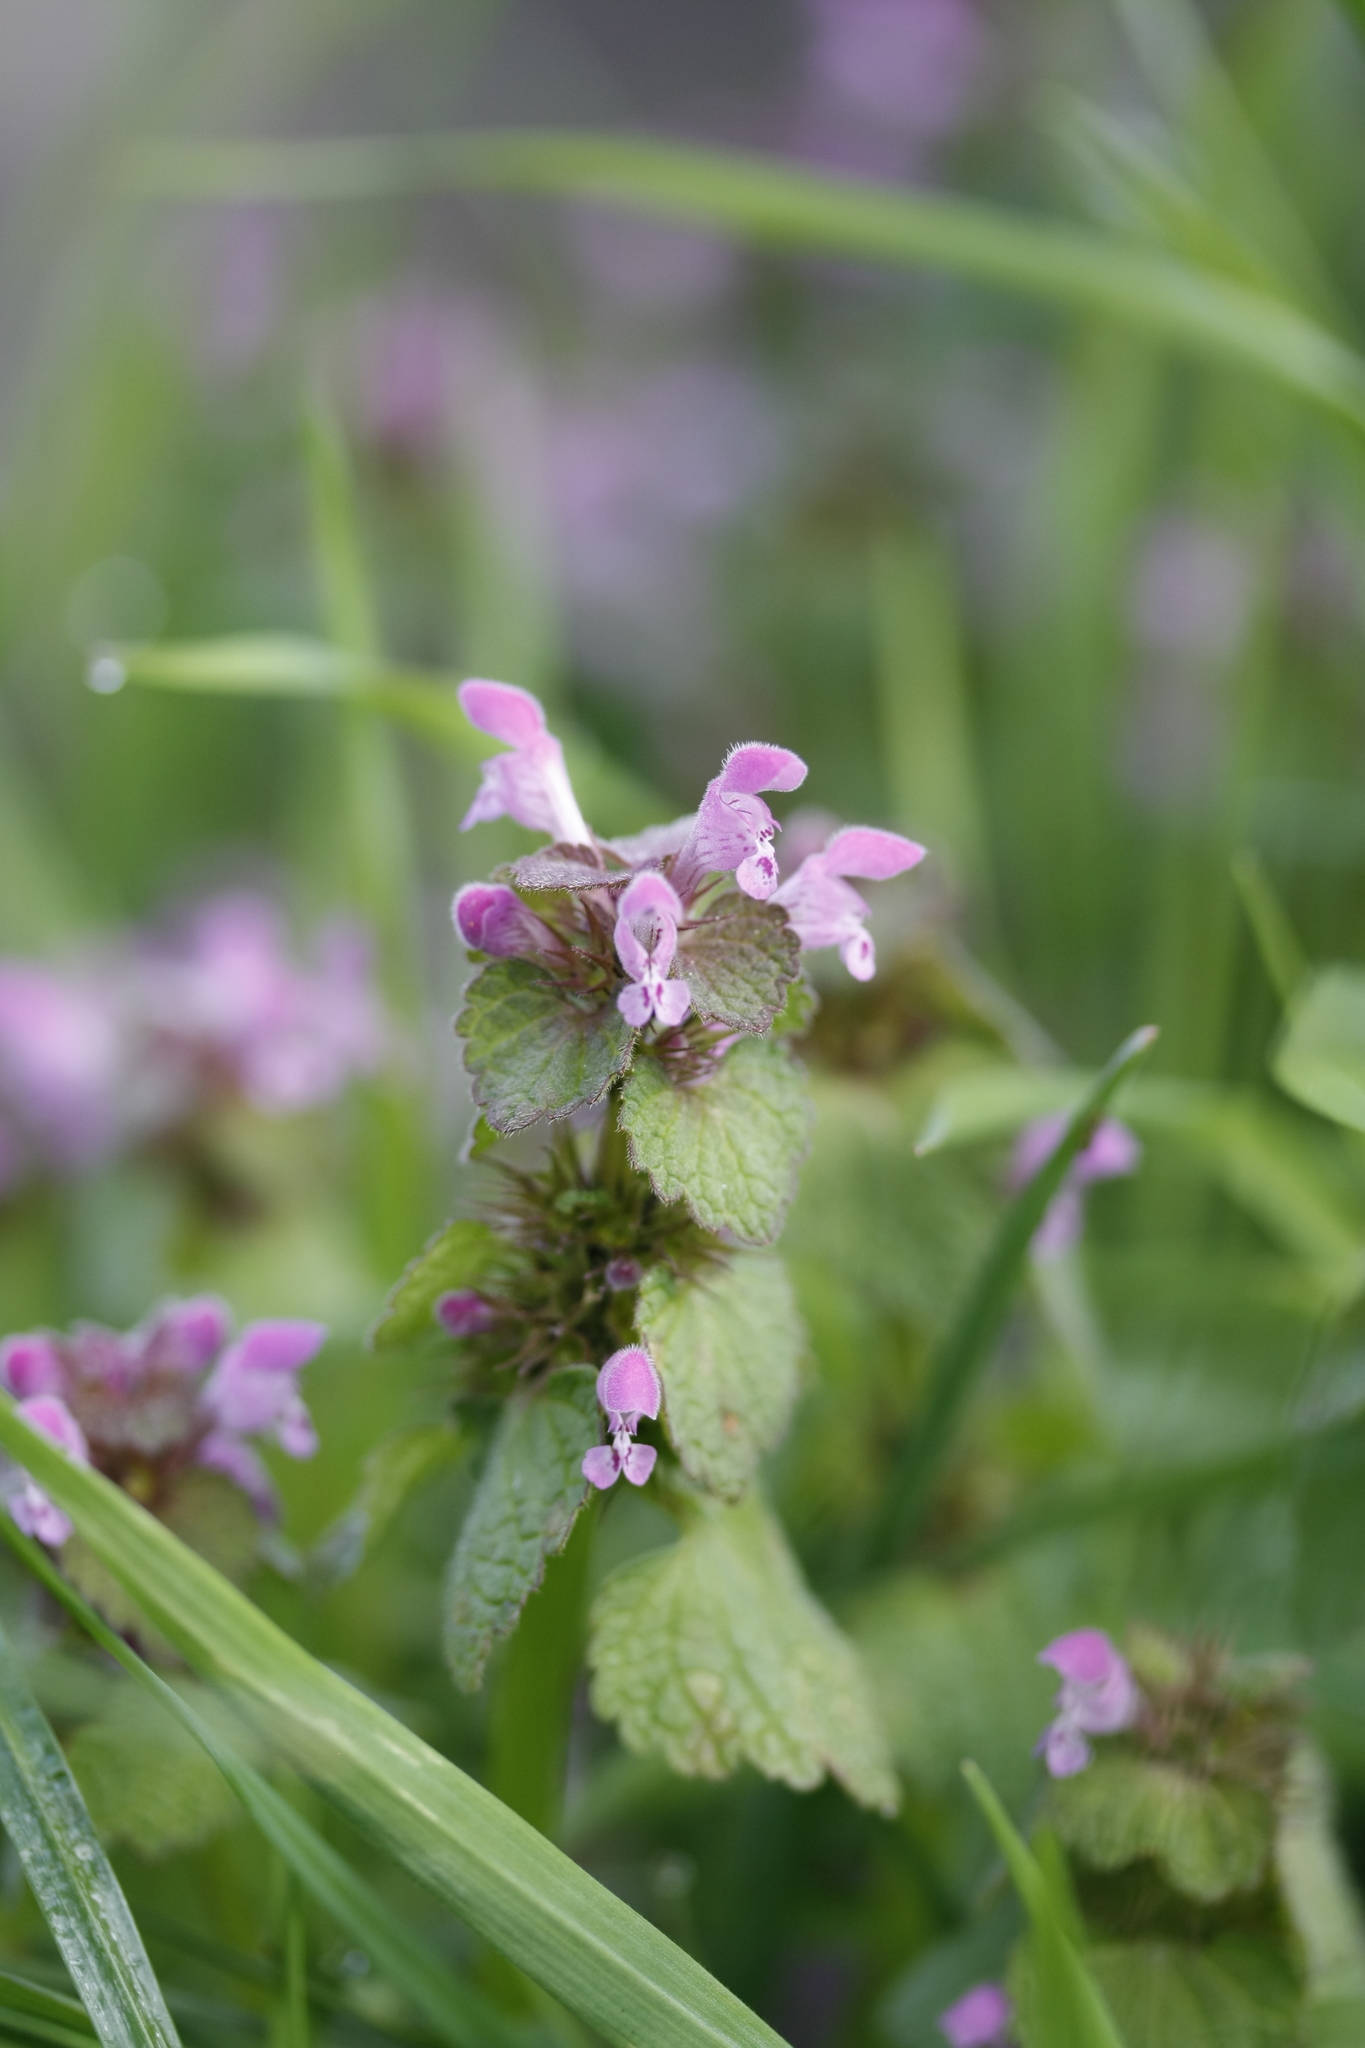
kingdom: Plantae
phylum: Tracheophyta
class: Magnoliopsida
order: Lamiales
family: Lamiaceae
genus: Lamium
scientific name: Lamium purpureum
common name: Red dead-nettle
